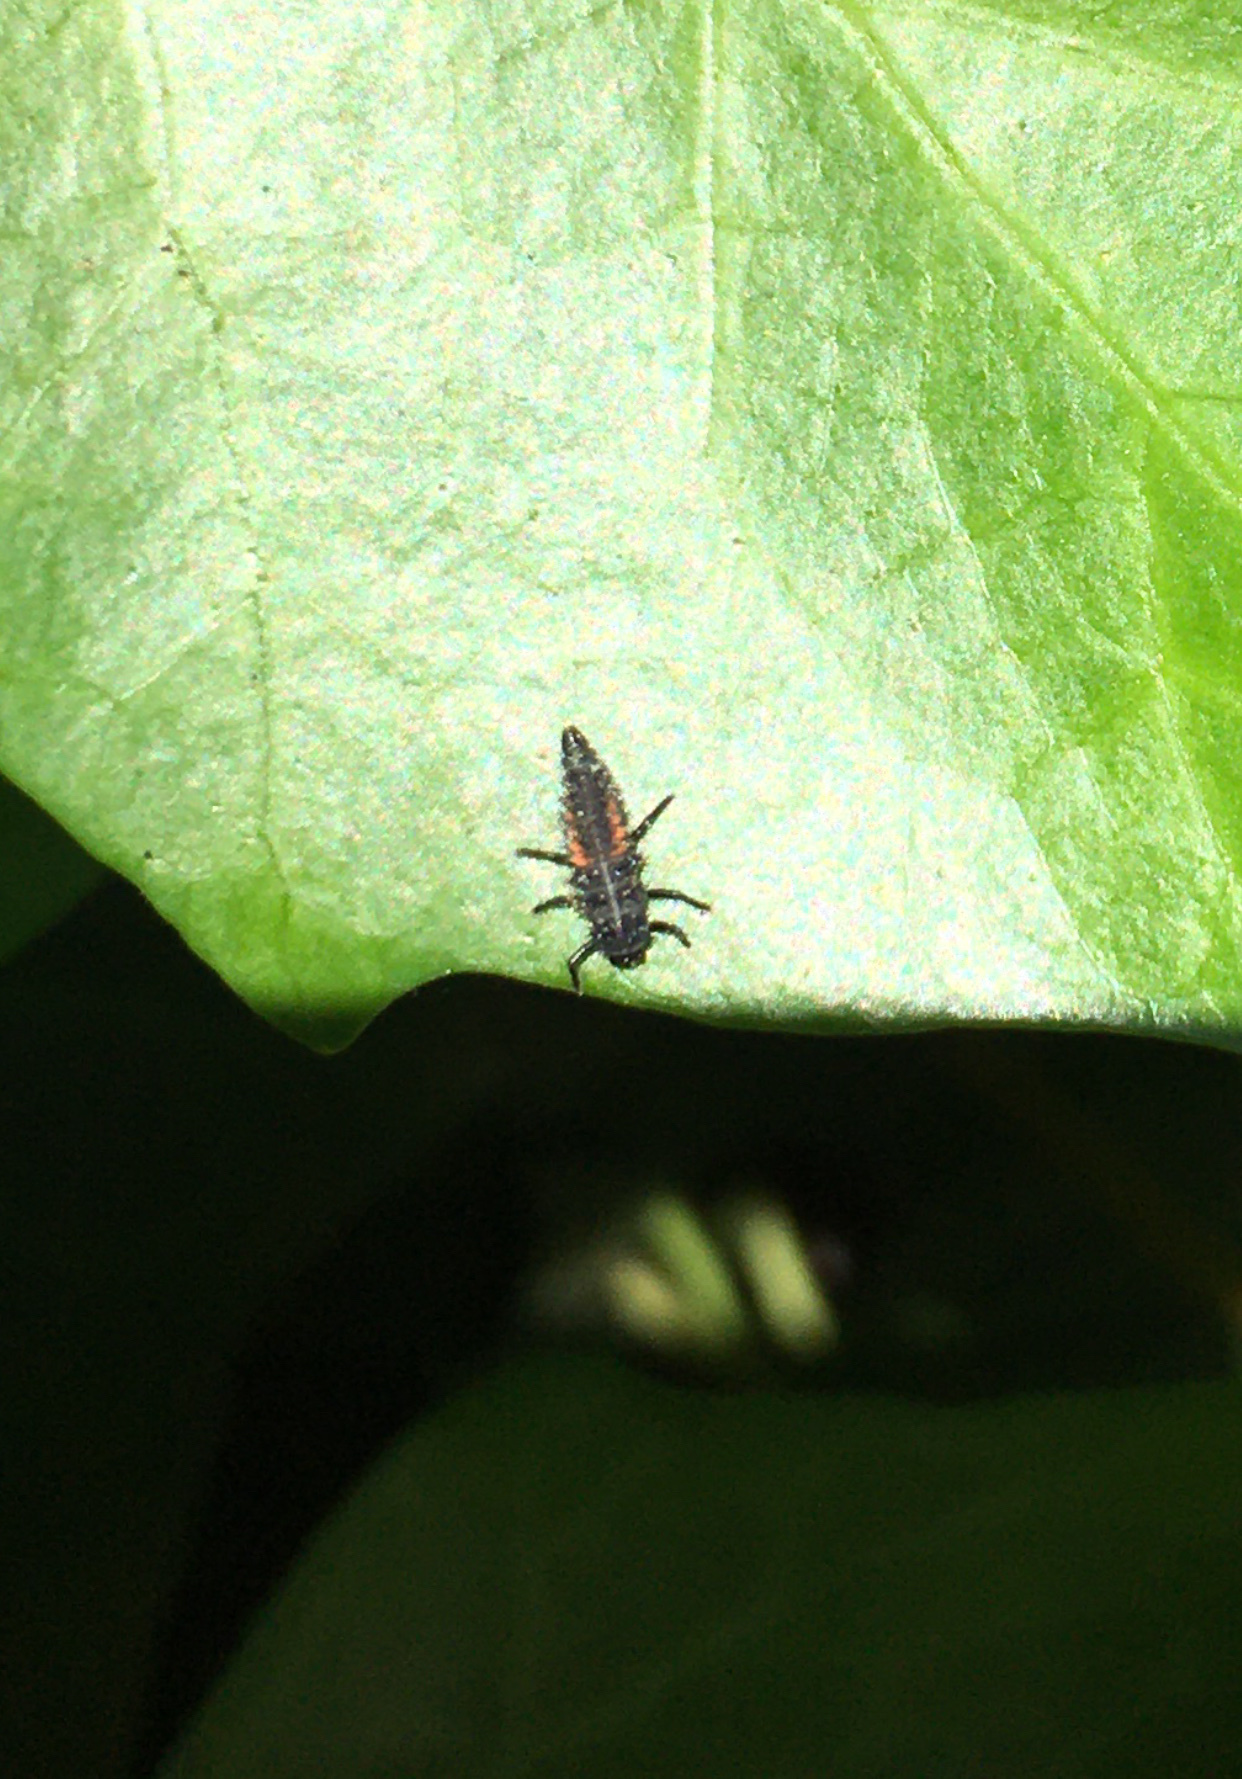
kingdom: Animalia
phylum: Arthropoda
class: Insecta
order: Coleoptera
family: Coccinellidae
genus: Harmonia
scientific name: Harmonia axyridis
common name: Harlequin ladybird
